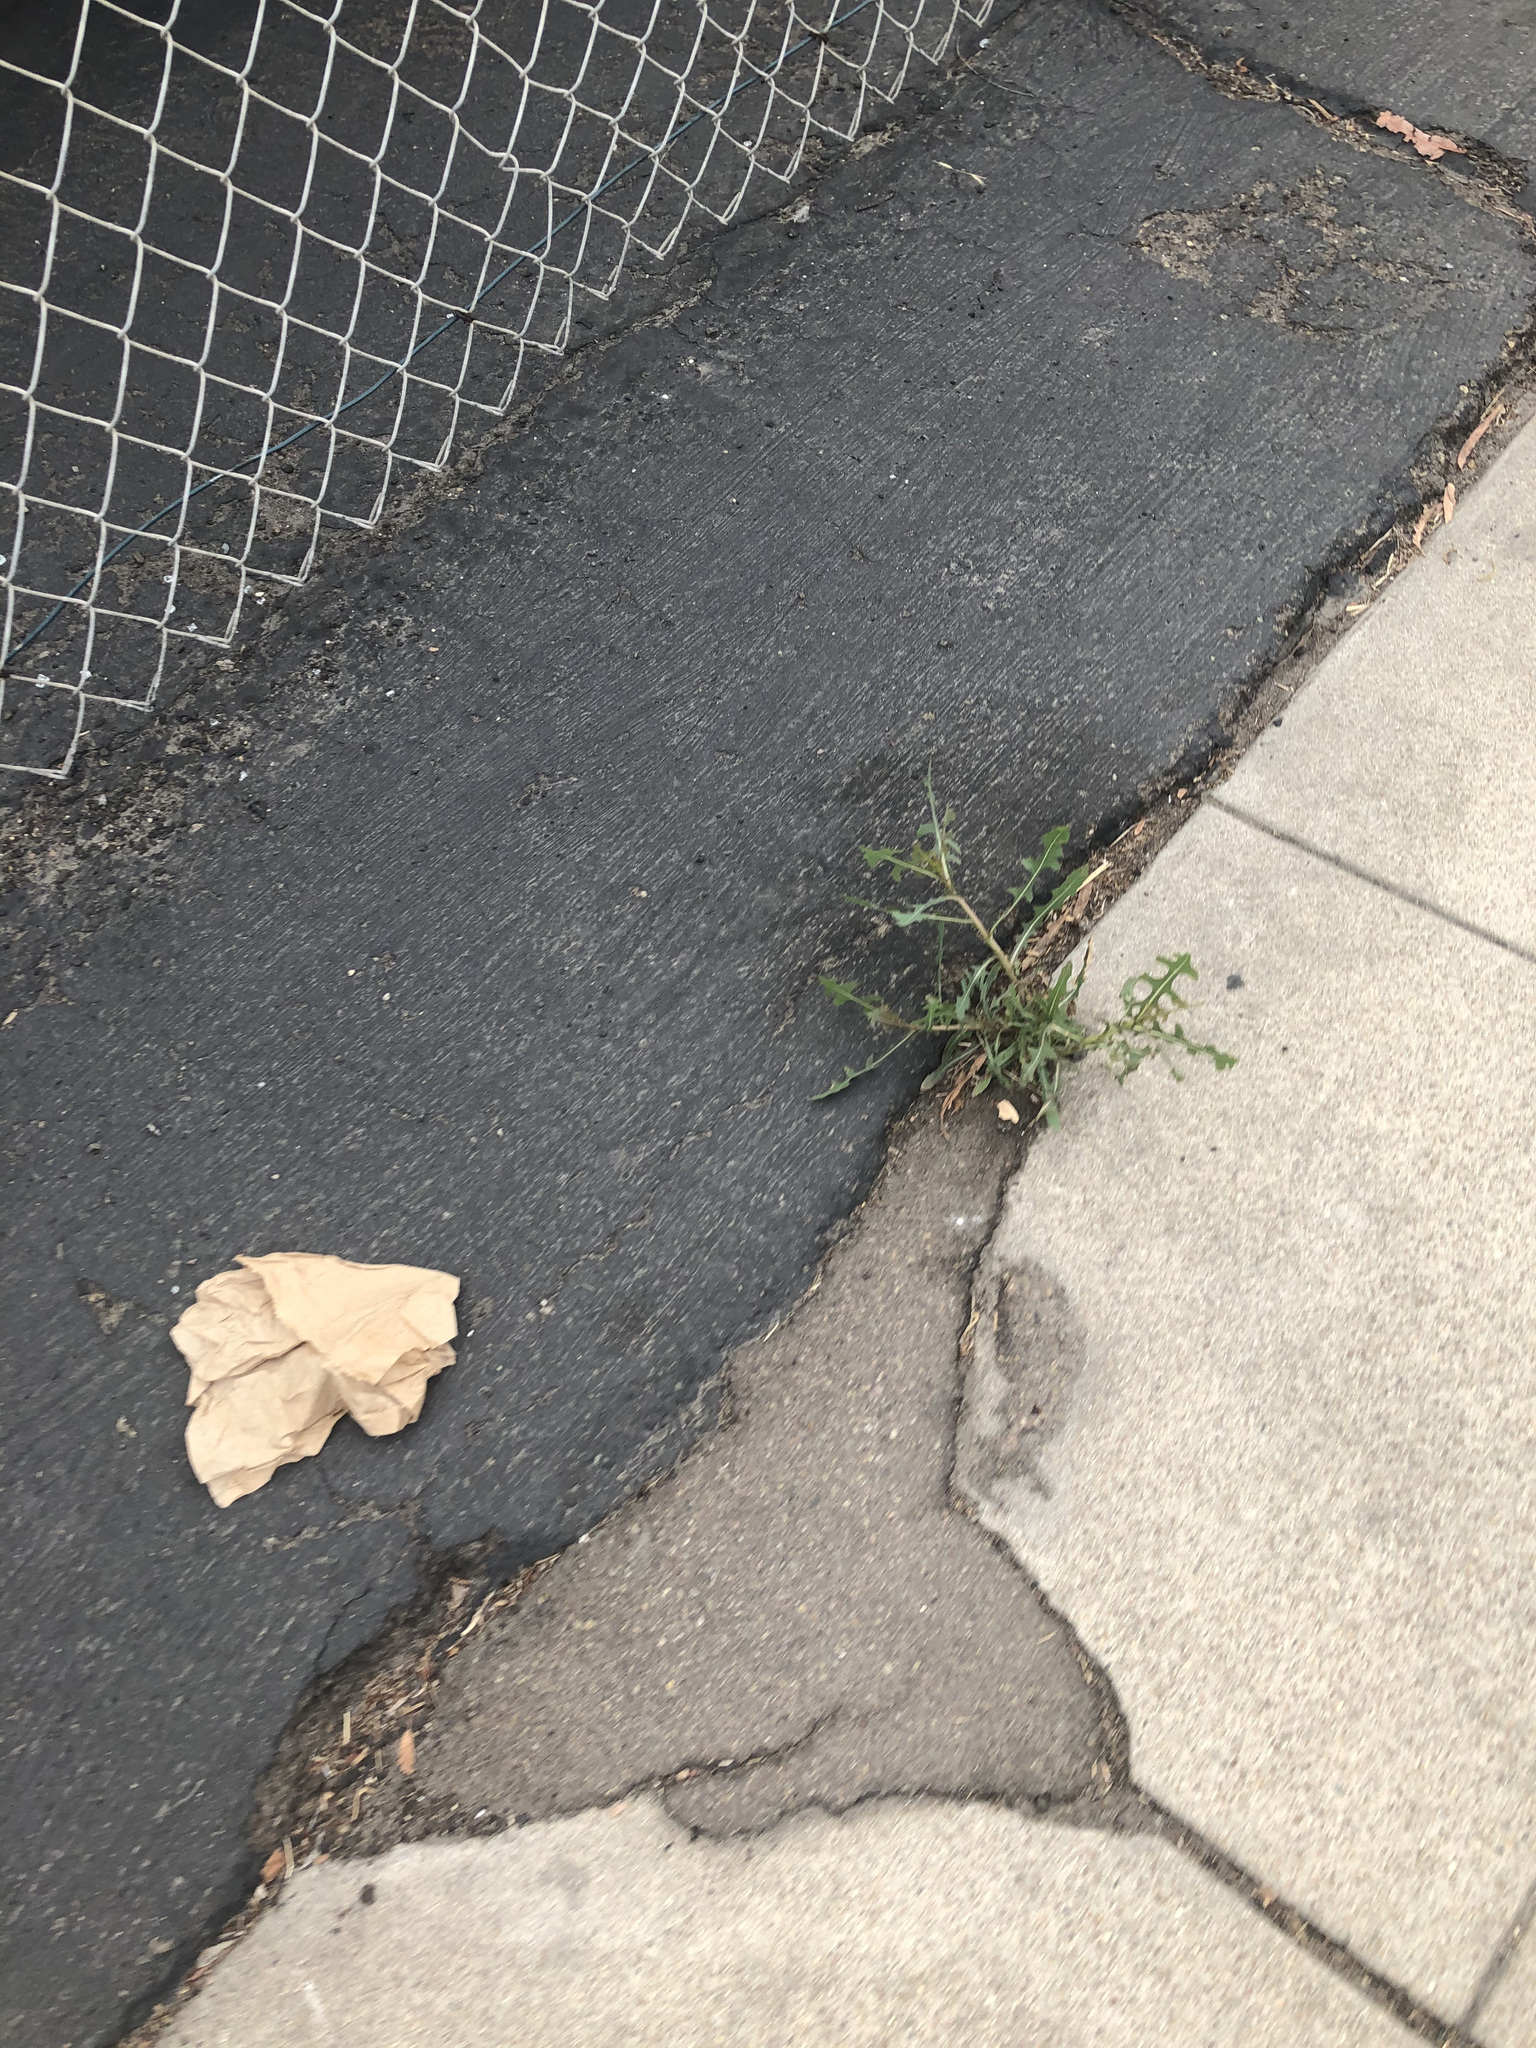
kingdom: Plantae
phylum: Tracheophyta
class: Magnoliopsida
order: Asterales
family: Asteraceae
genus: Lactuca
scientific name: Lactuca serriola
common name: Prickly lettuce
